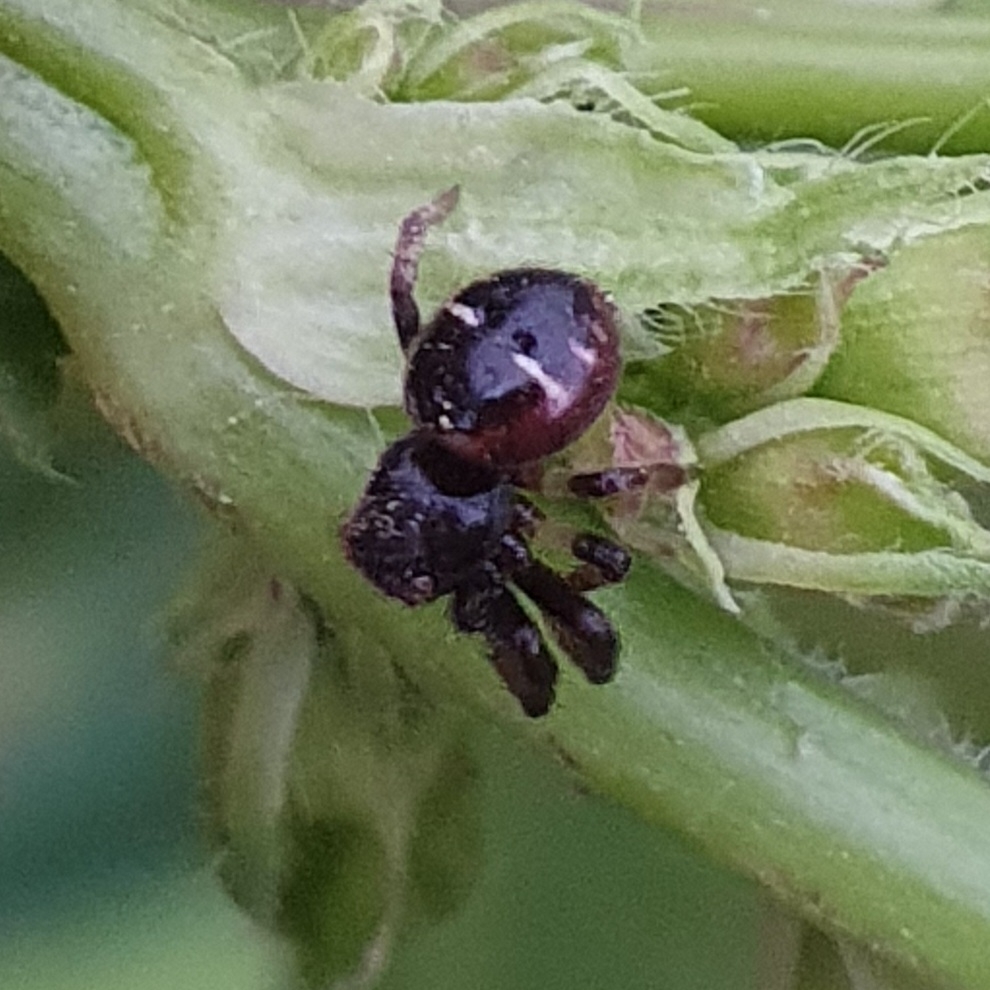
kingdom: Animalia
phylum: Arthropoda
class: Arachnida
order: Araneae
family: Thomisidae
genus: Synema
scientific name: Synema globosum
